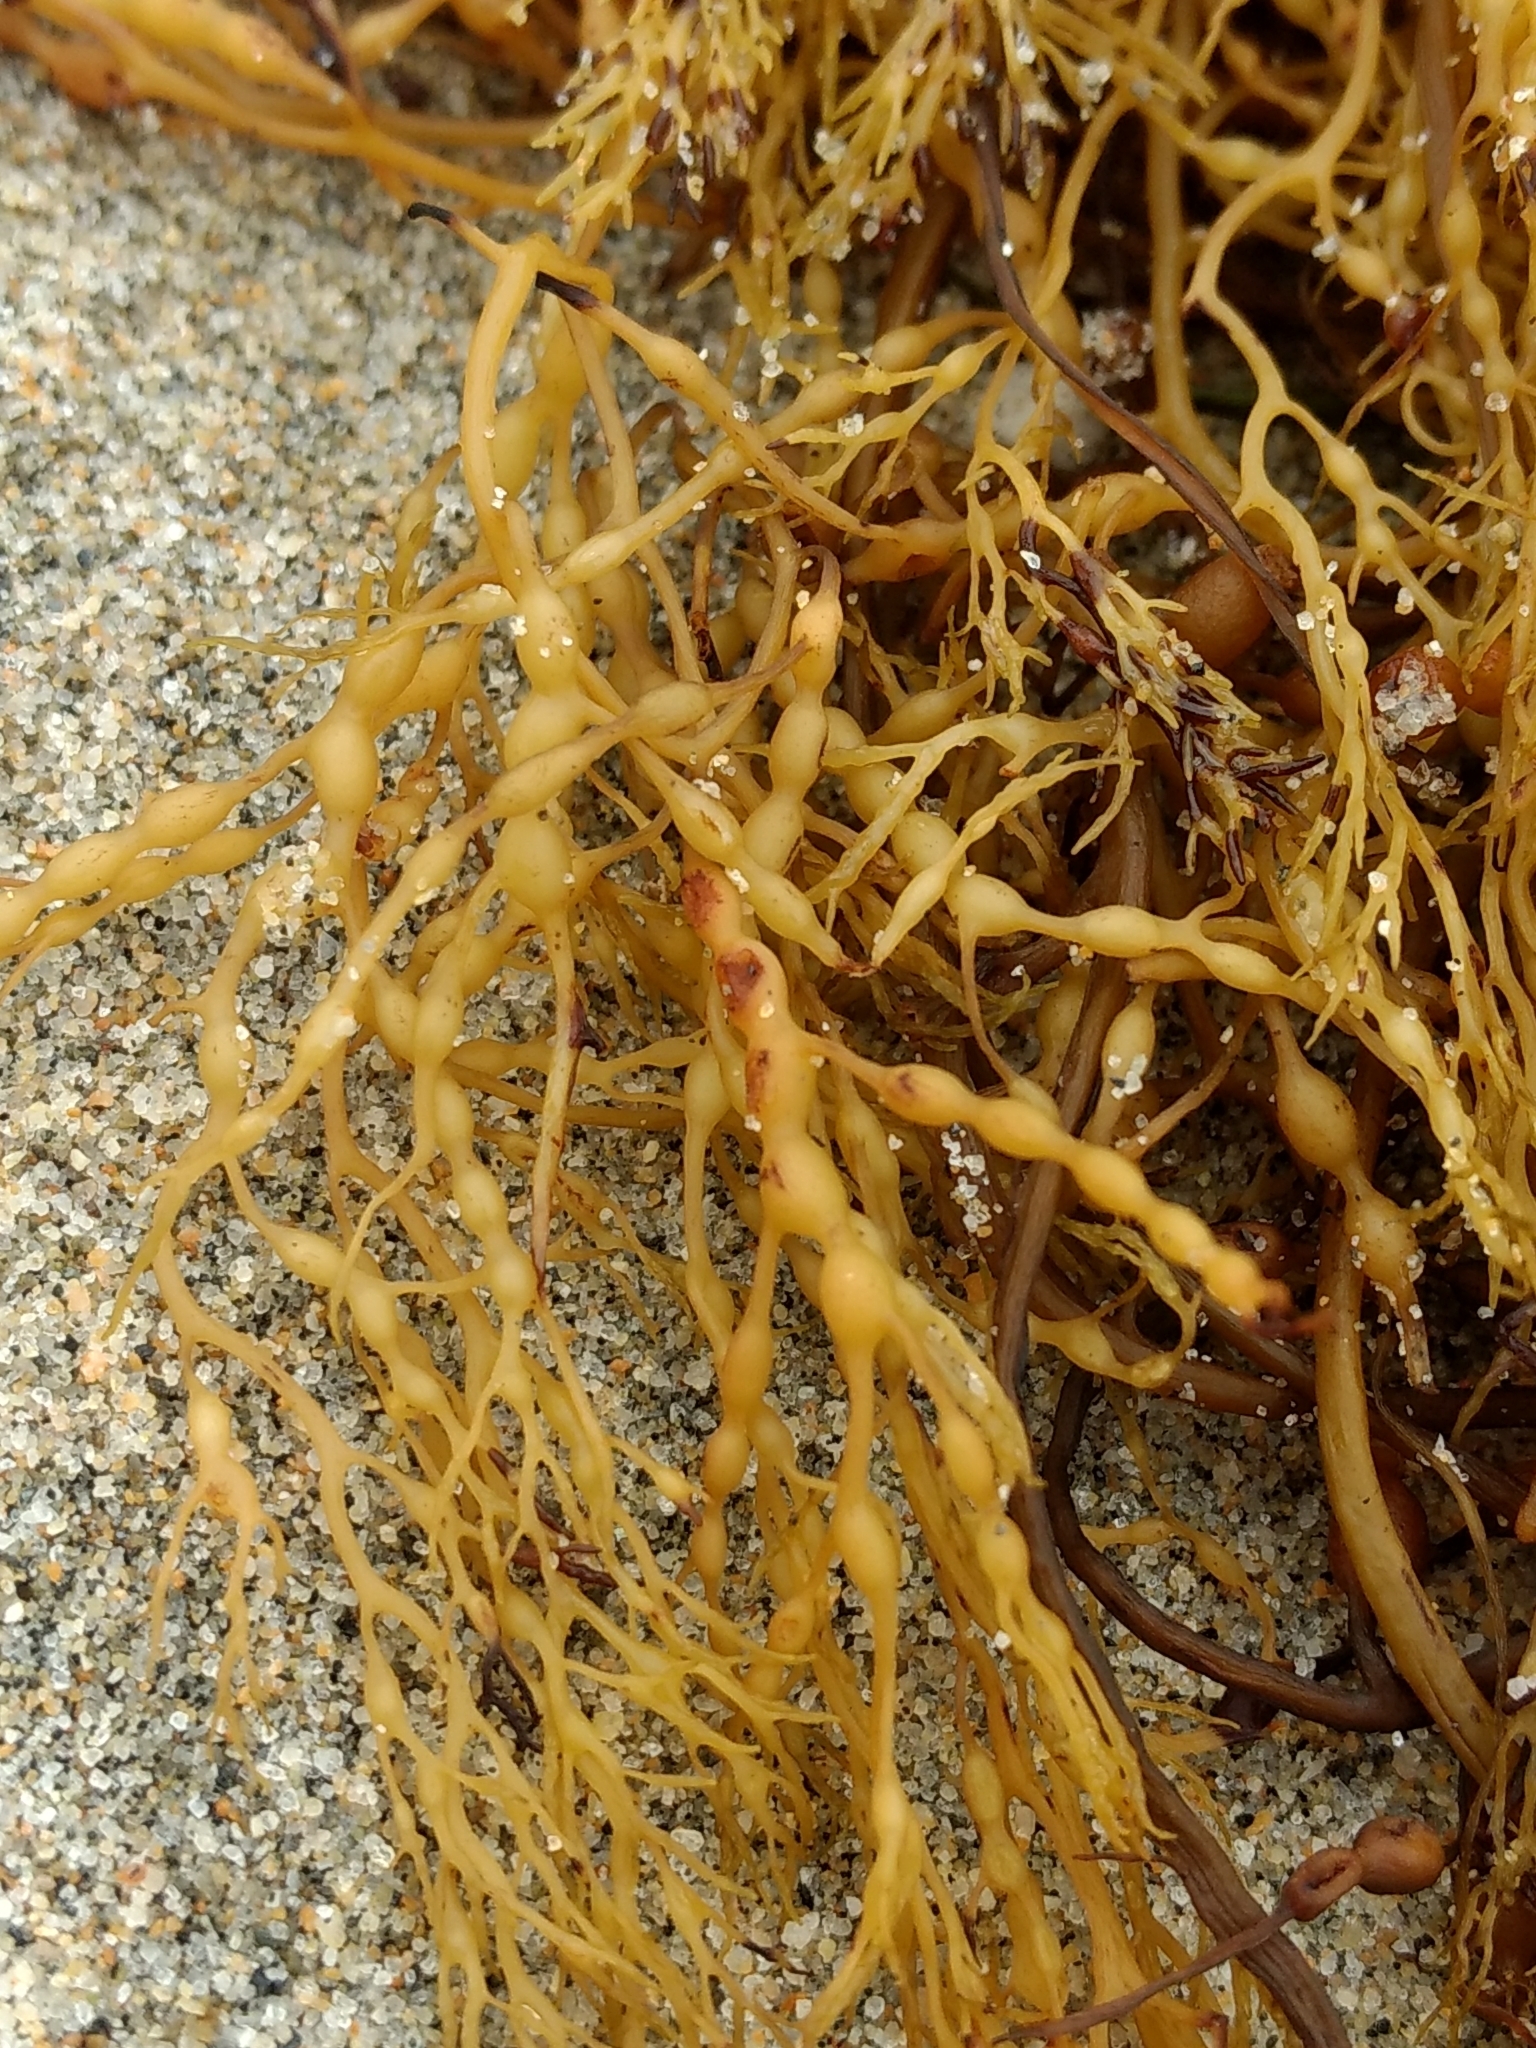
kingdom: Chromista
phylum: Ochrophyta
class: Phaeophyceae
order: Fucales
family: Sargassaceae
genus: Stephanocystis
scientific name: Stephanocystis
